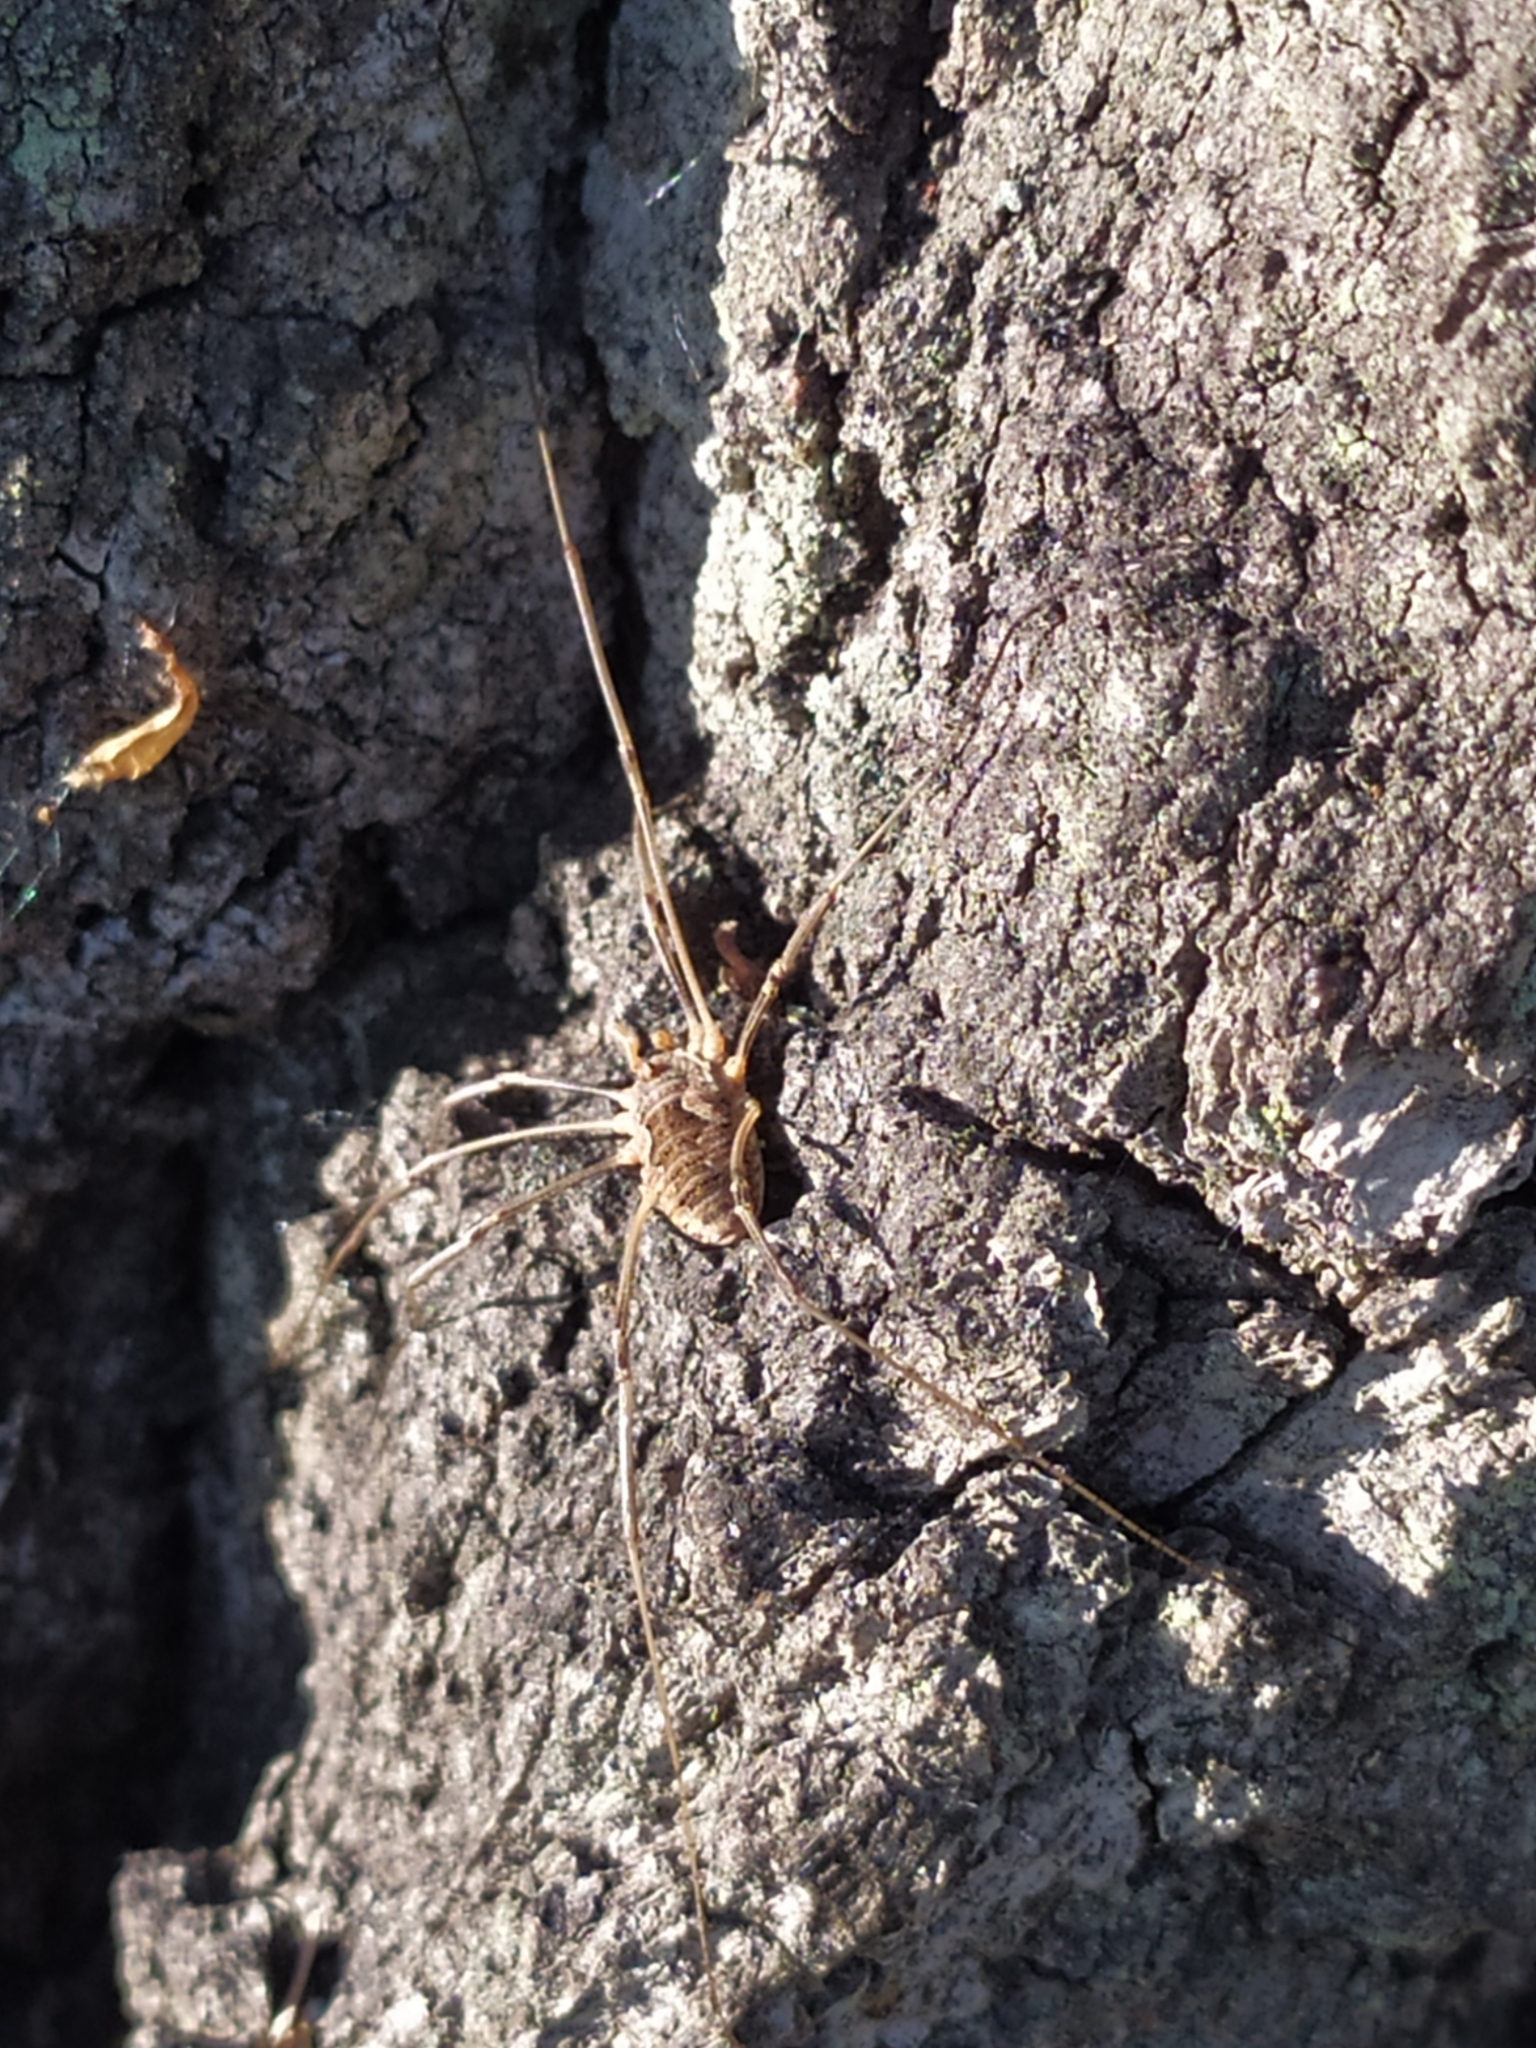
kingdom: Animalia
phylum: Arthropoda
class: Arachnida
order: Opiliones
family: Phalangiidae
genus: Phalangium
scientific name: Phalangium opilio
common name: Daddy longleg
